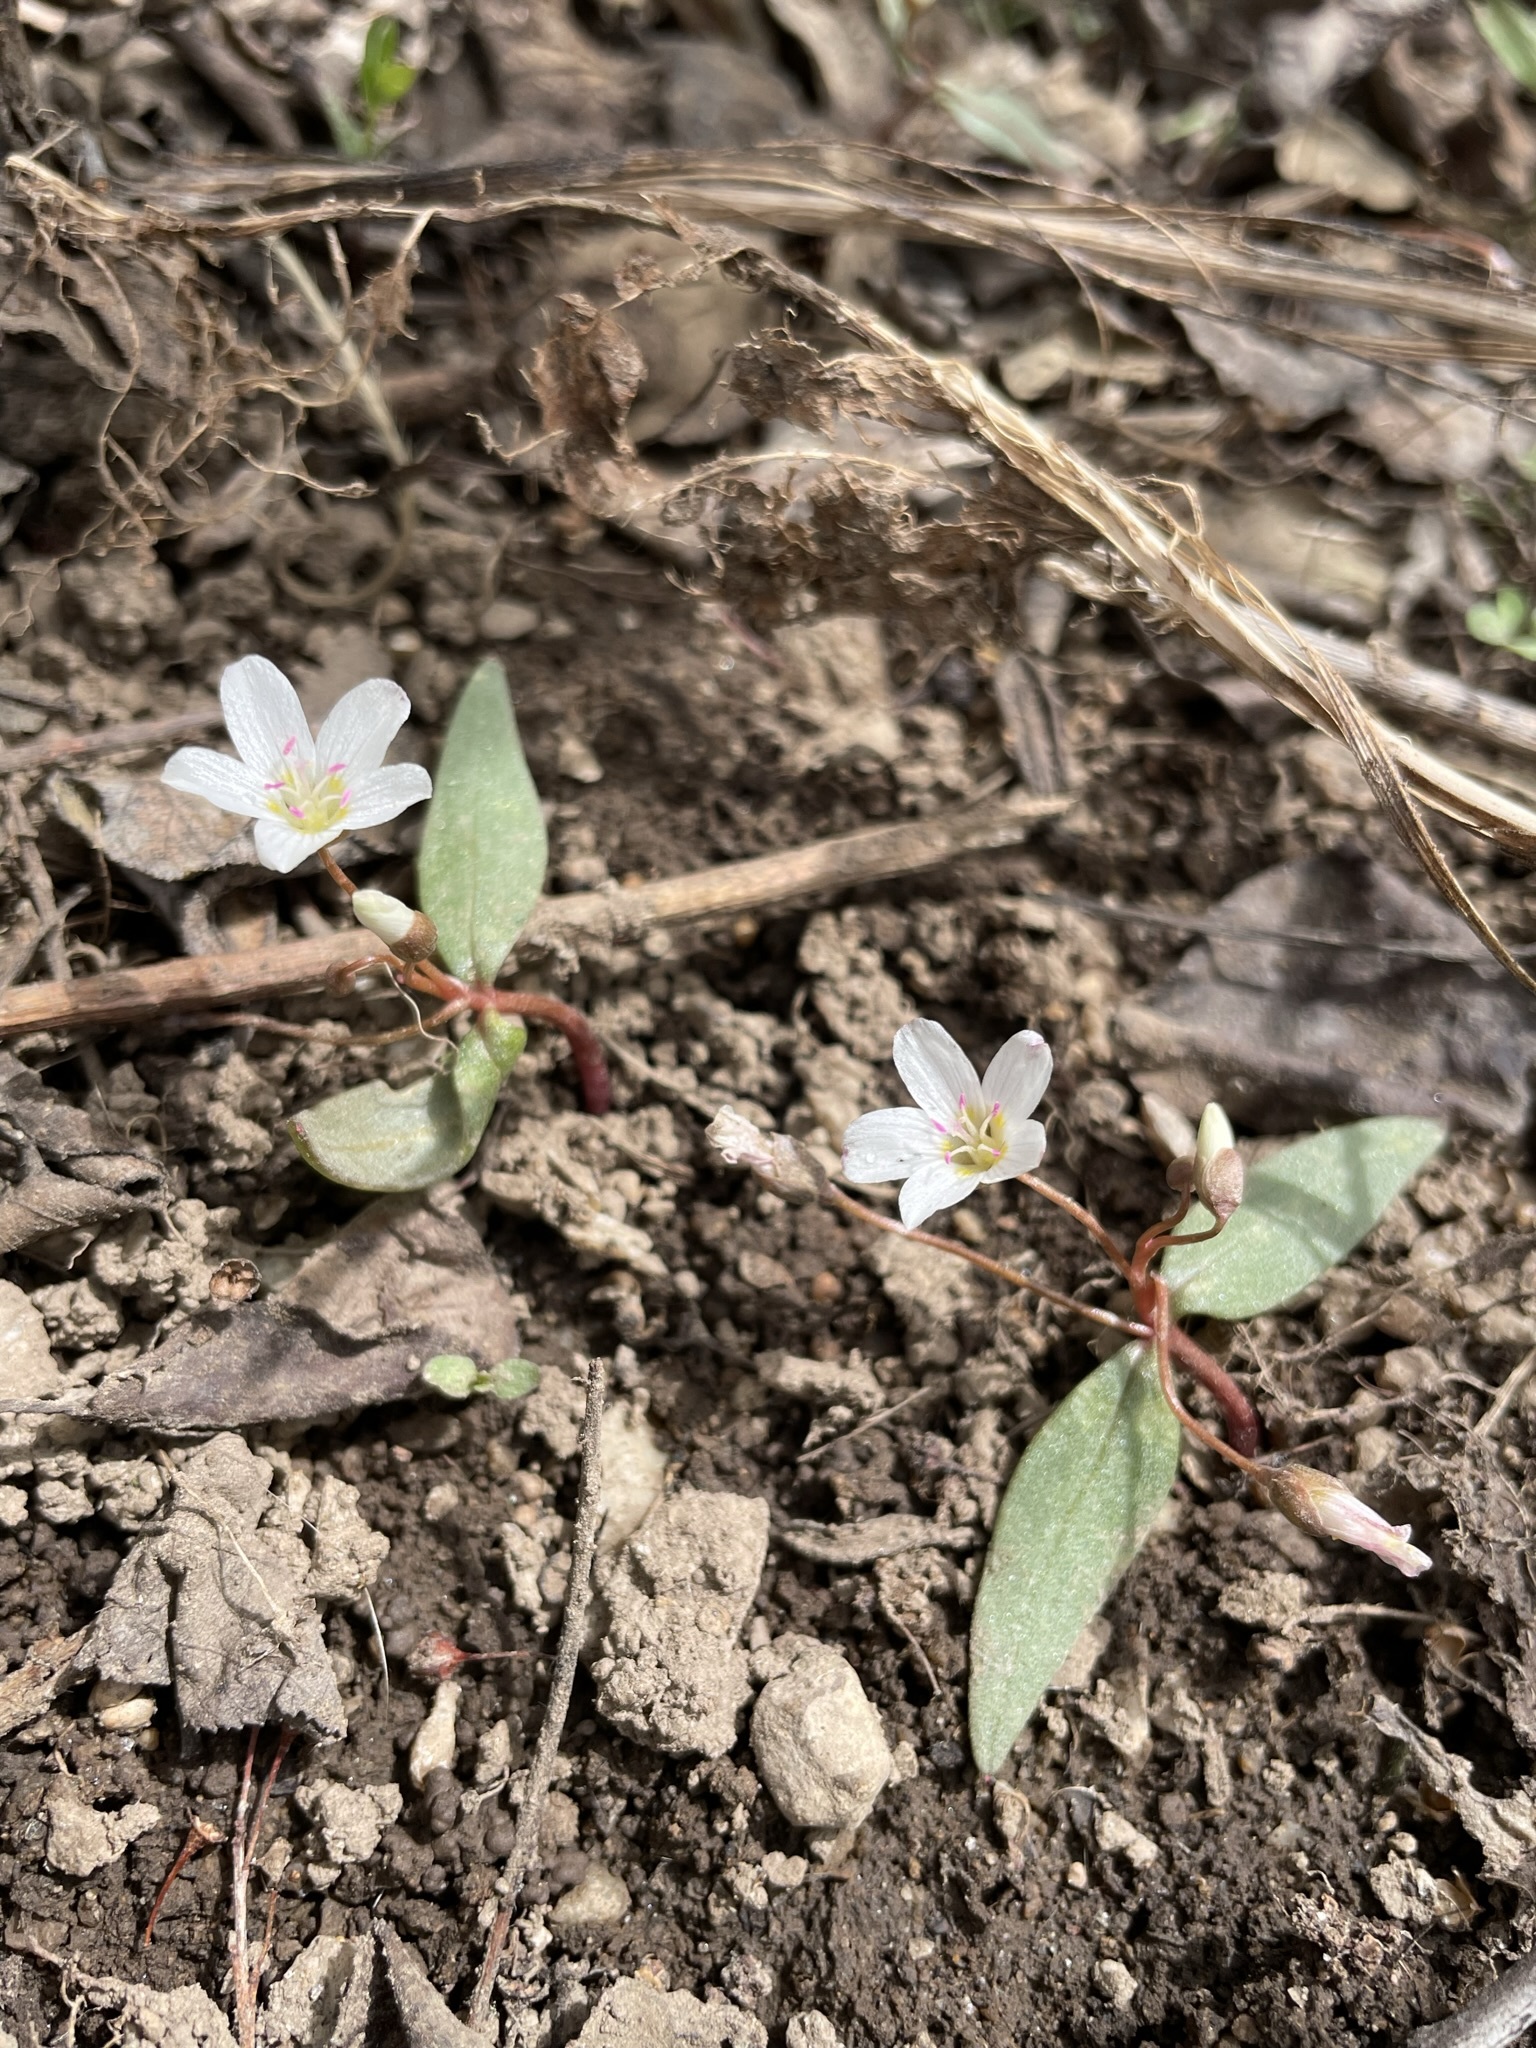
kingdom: Plantae
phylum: Tracheophyta
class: Magnoliopsida
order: Caryophyllales
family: Montiaceae
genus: Claytonia
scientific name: Claytonia lanceolata
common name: Western spring-beauty
